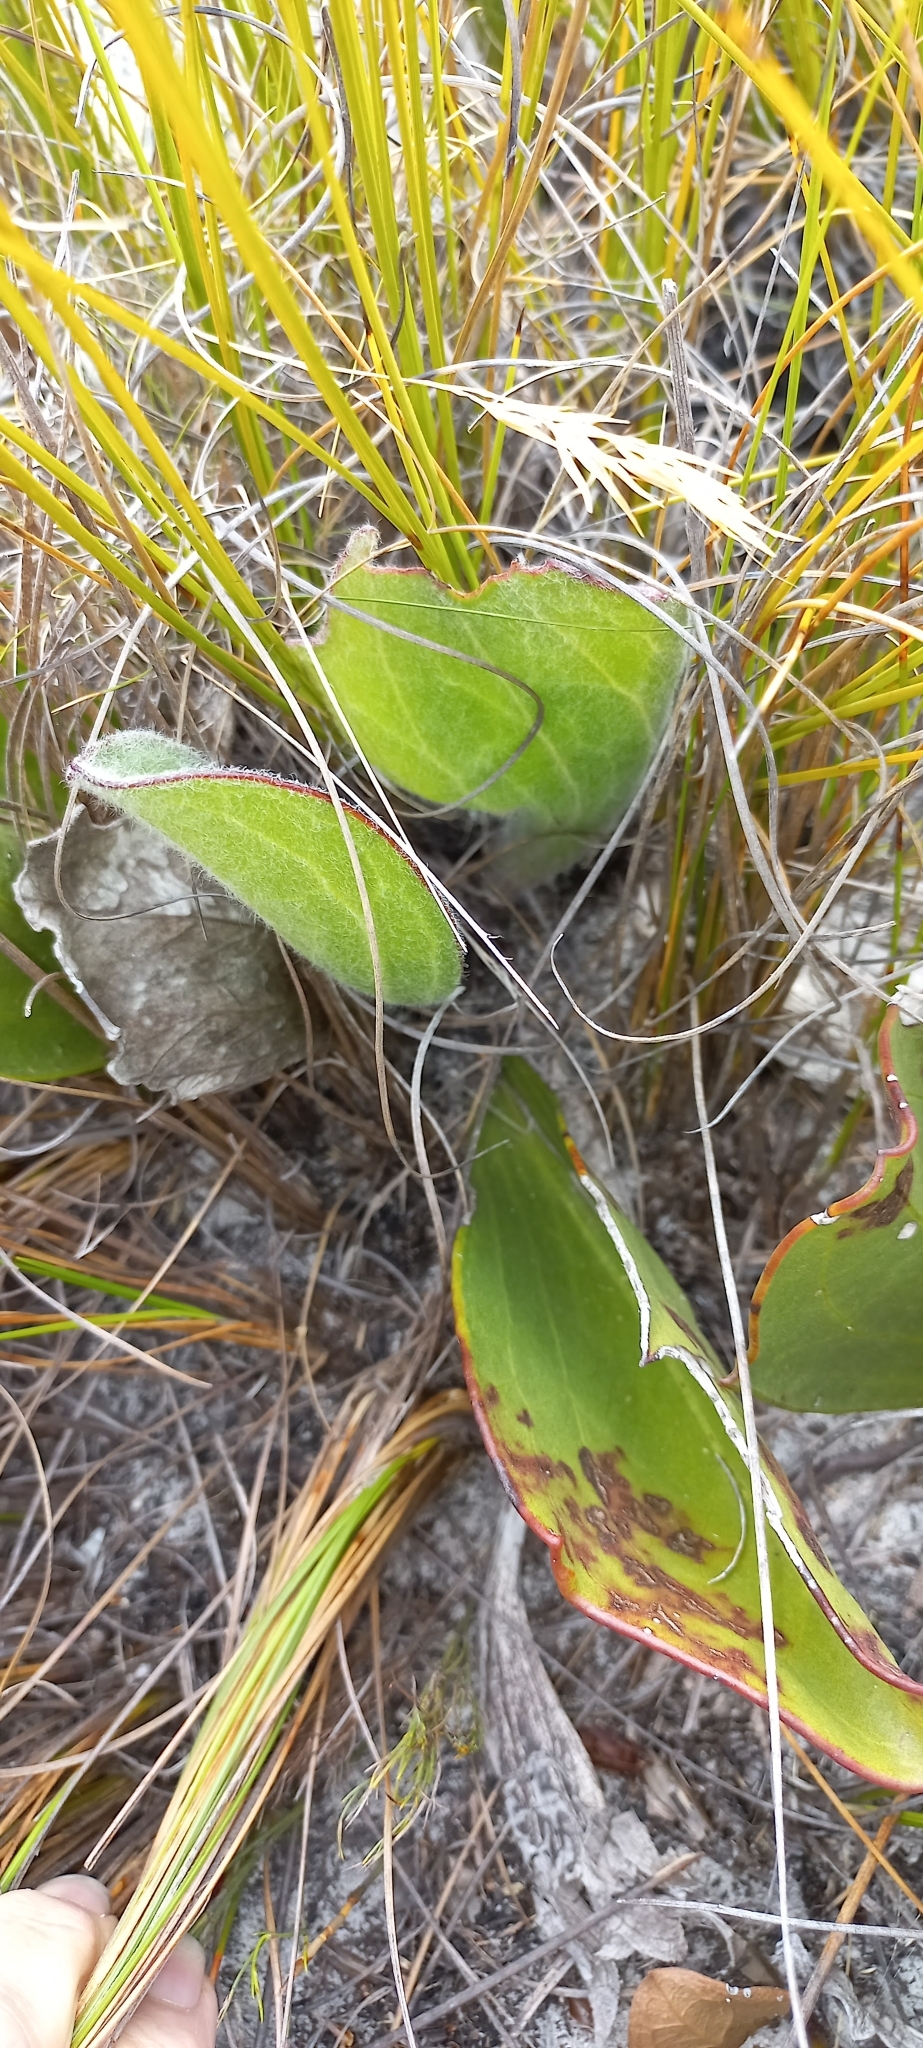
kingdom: Plantae
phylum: Tracheophyta
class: Magnoliopsida
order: Asterales
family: Asteraceae
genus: Mairia
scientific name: Mairia coriacea
